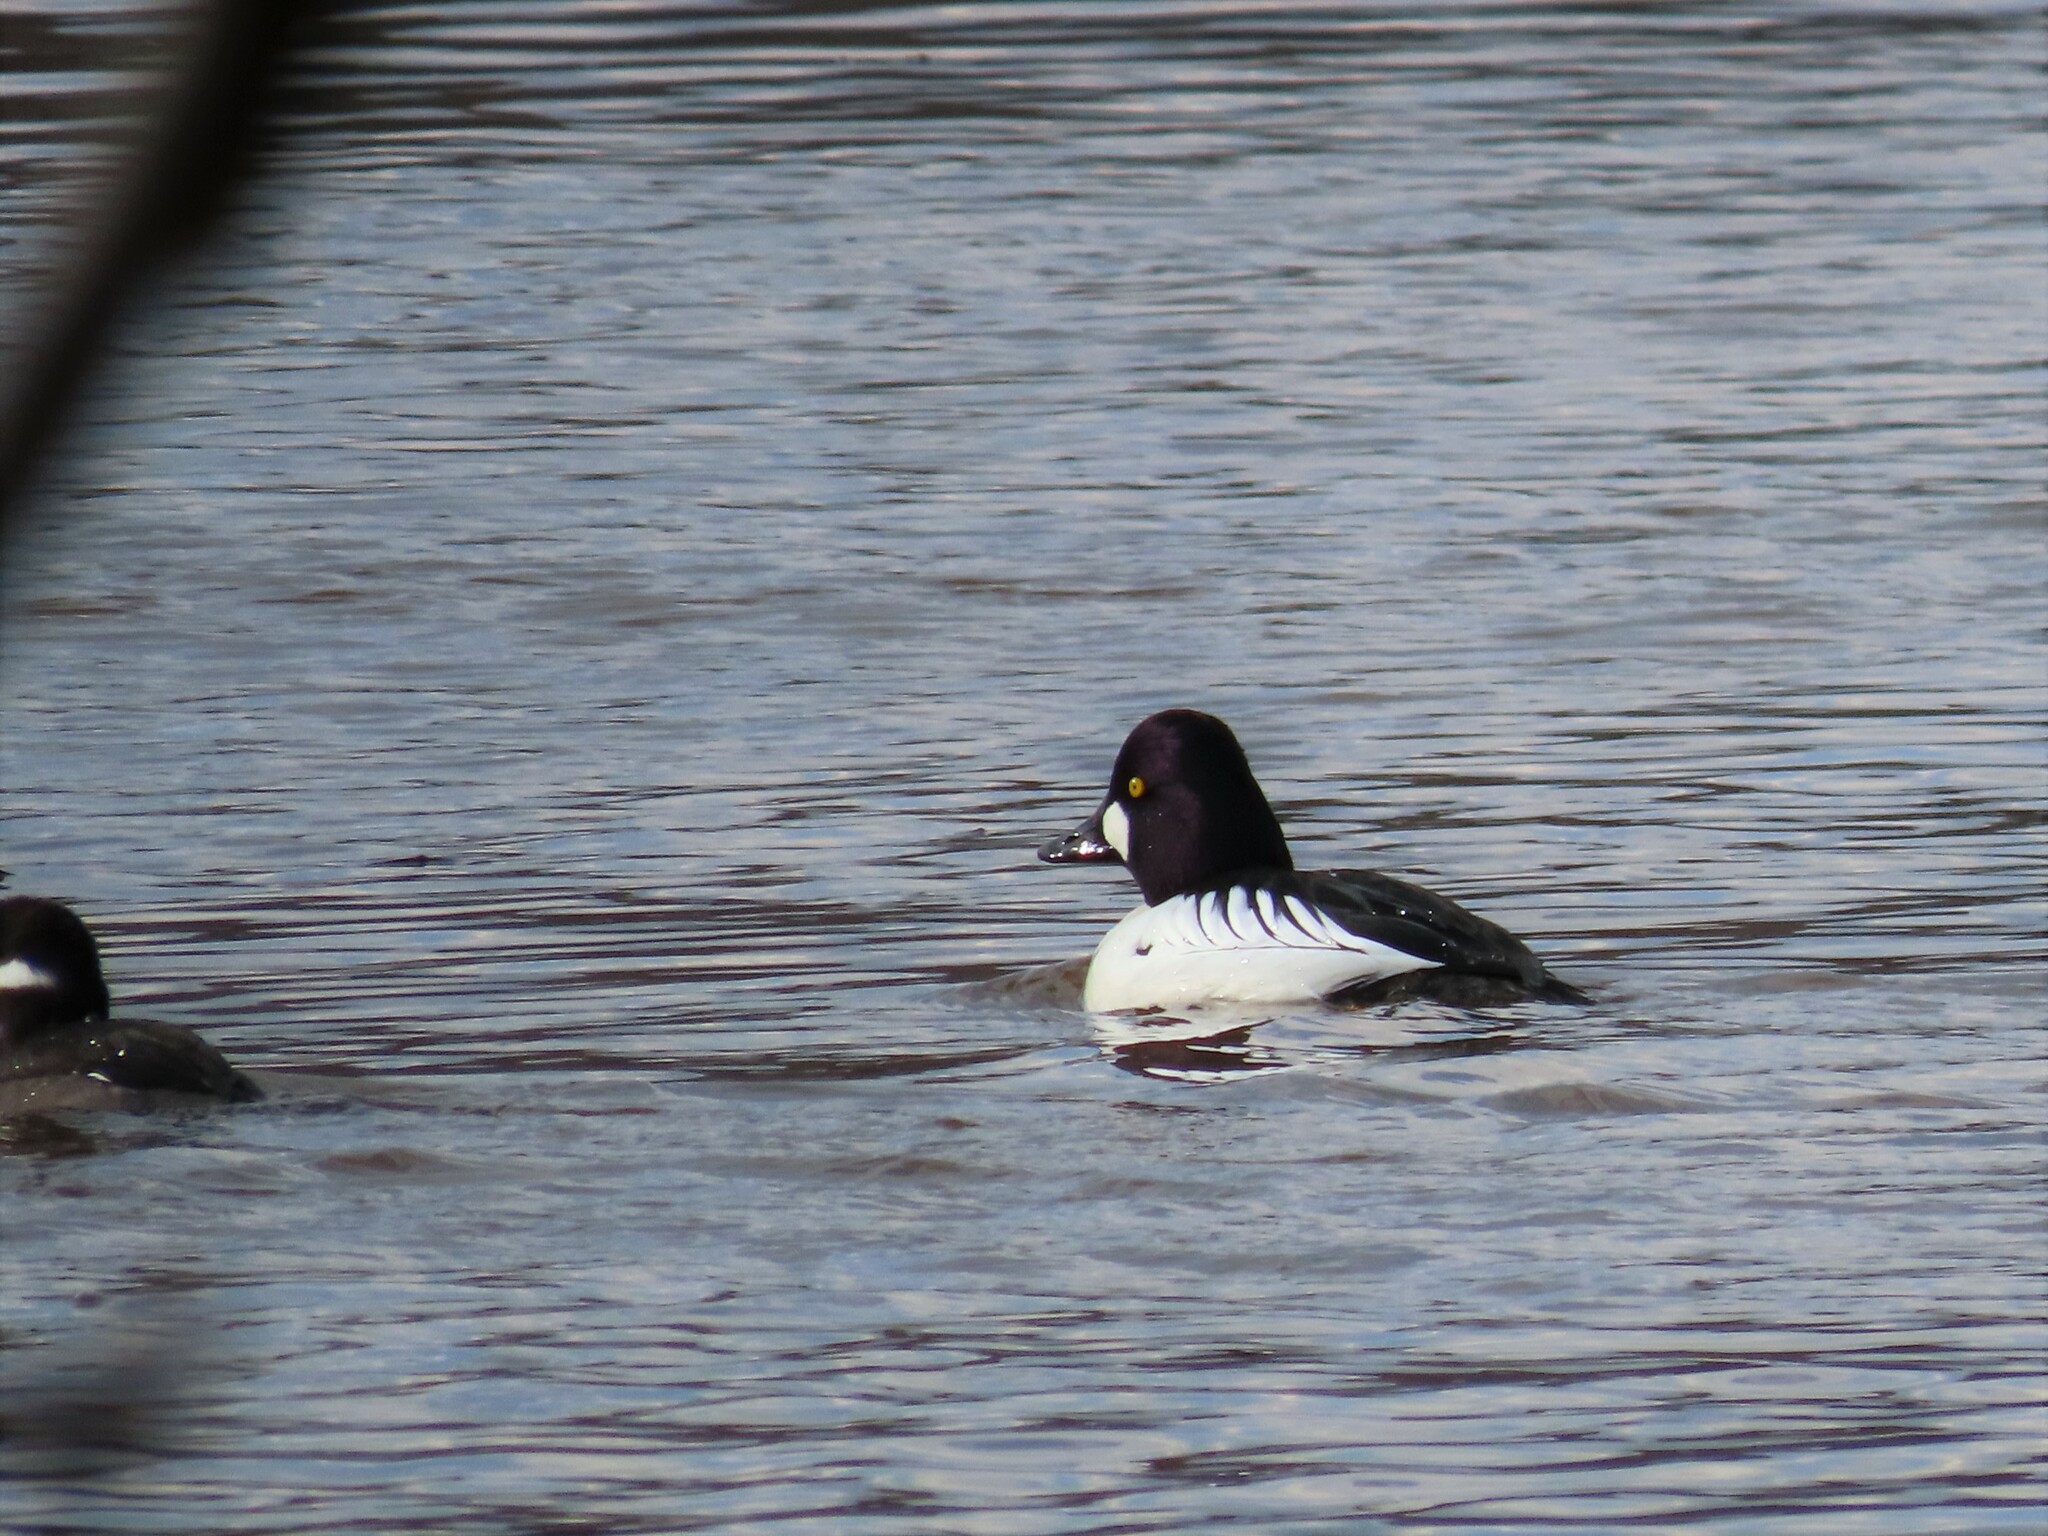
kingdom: Animalia
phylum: Chordata
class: Aves
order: Anseriformes
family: Anatidae
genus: Bucephala
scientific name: Bucephala clangula
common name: Common goldeneye
